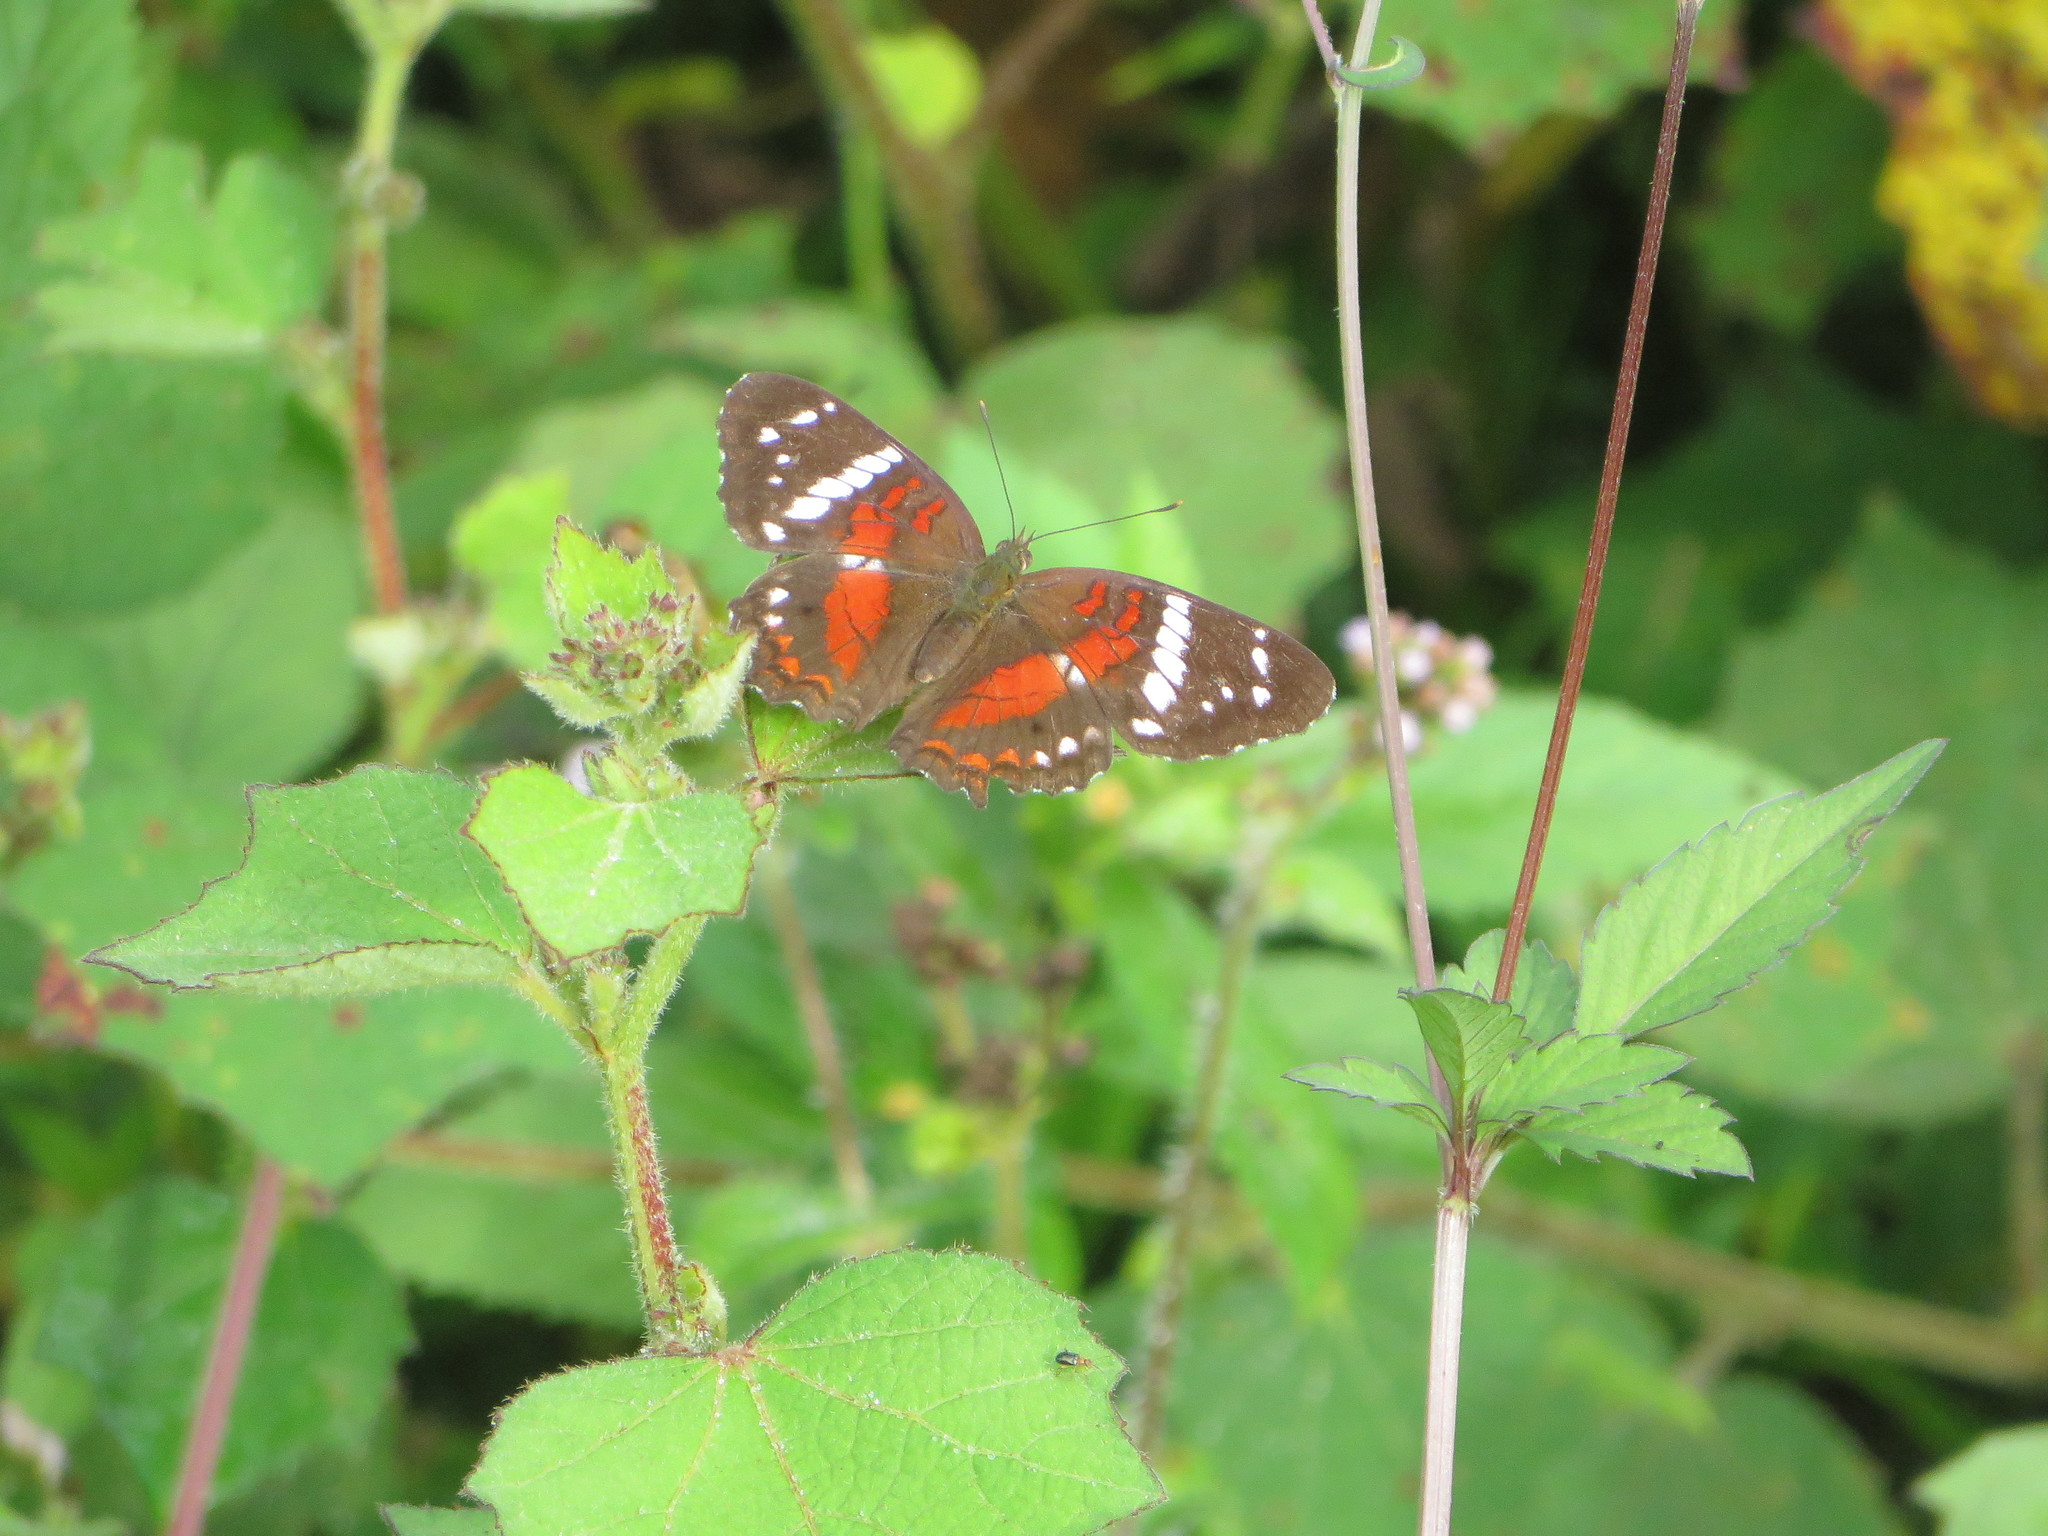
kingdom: Animalia
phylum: Arthropoda
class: Insecta
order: Lepidoptera
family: Nymphalidae
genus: Anartia
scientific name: Anartia amathea
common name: Red peacock
